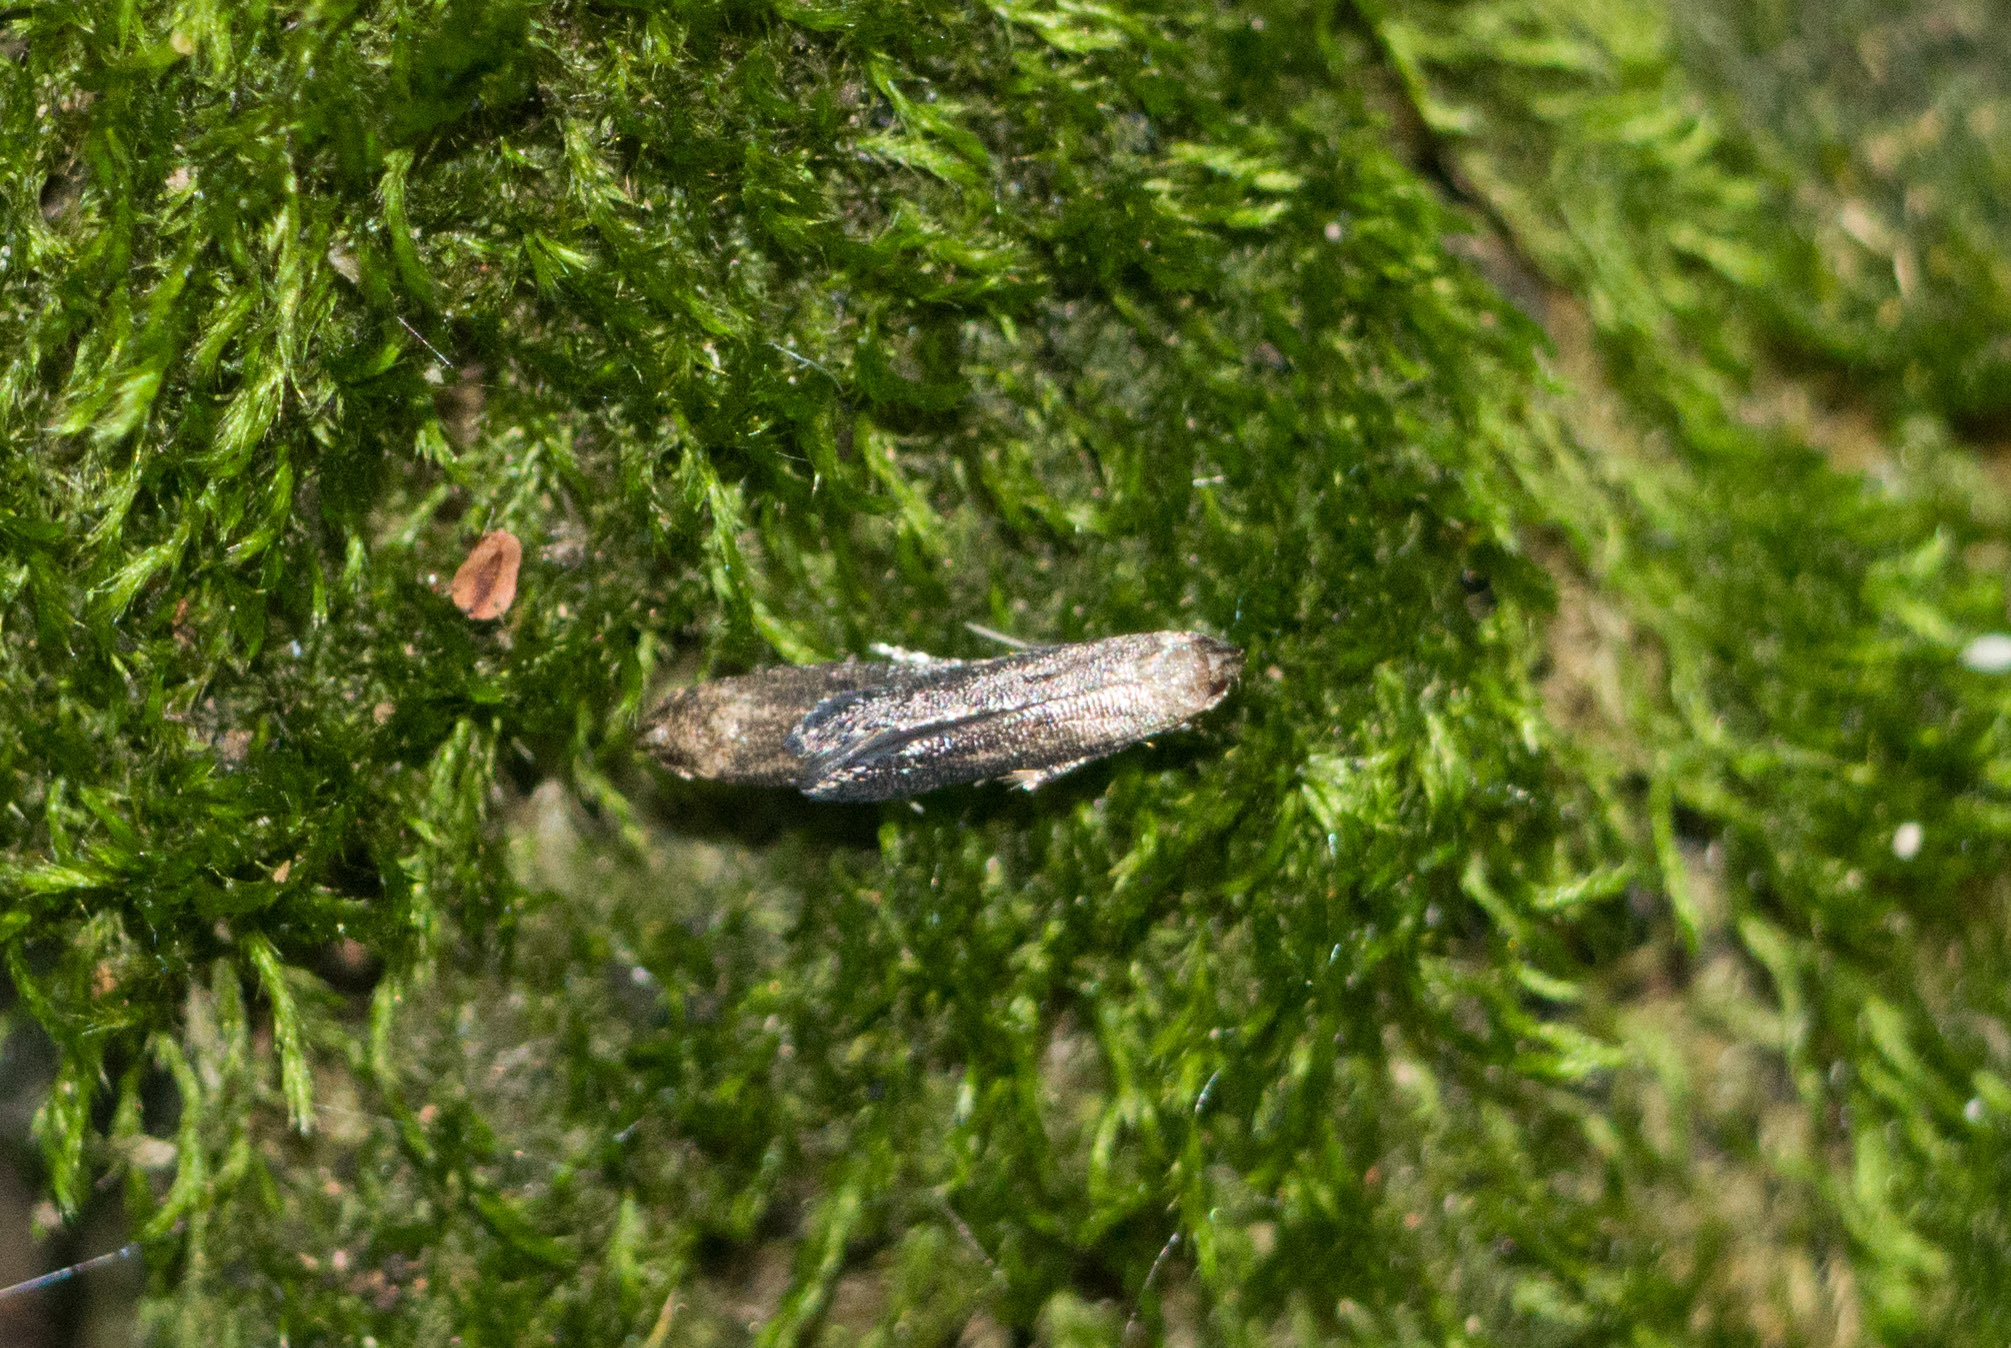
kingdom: Animalia
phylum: Arthropoda
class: Insecta
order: Lepidoptera
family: Elachistidae
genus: Perittia
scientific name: Perittia lonicerae
